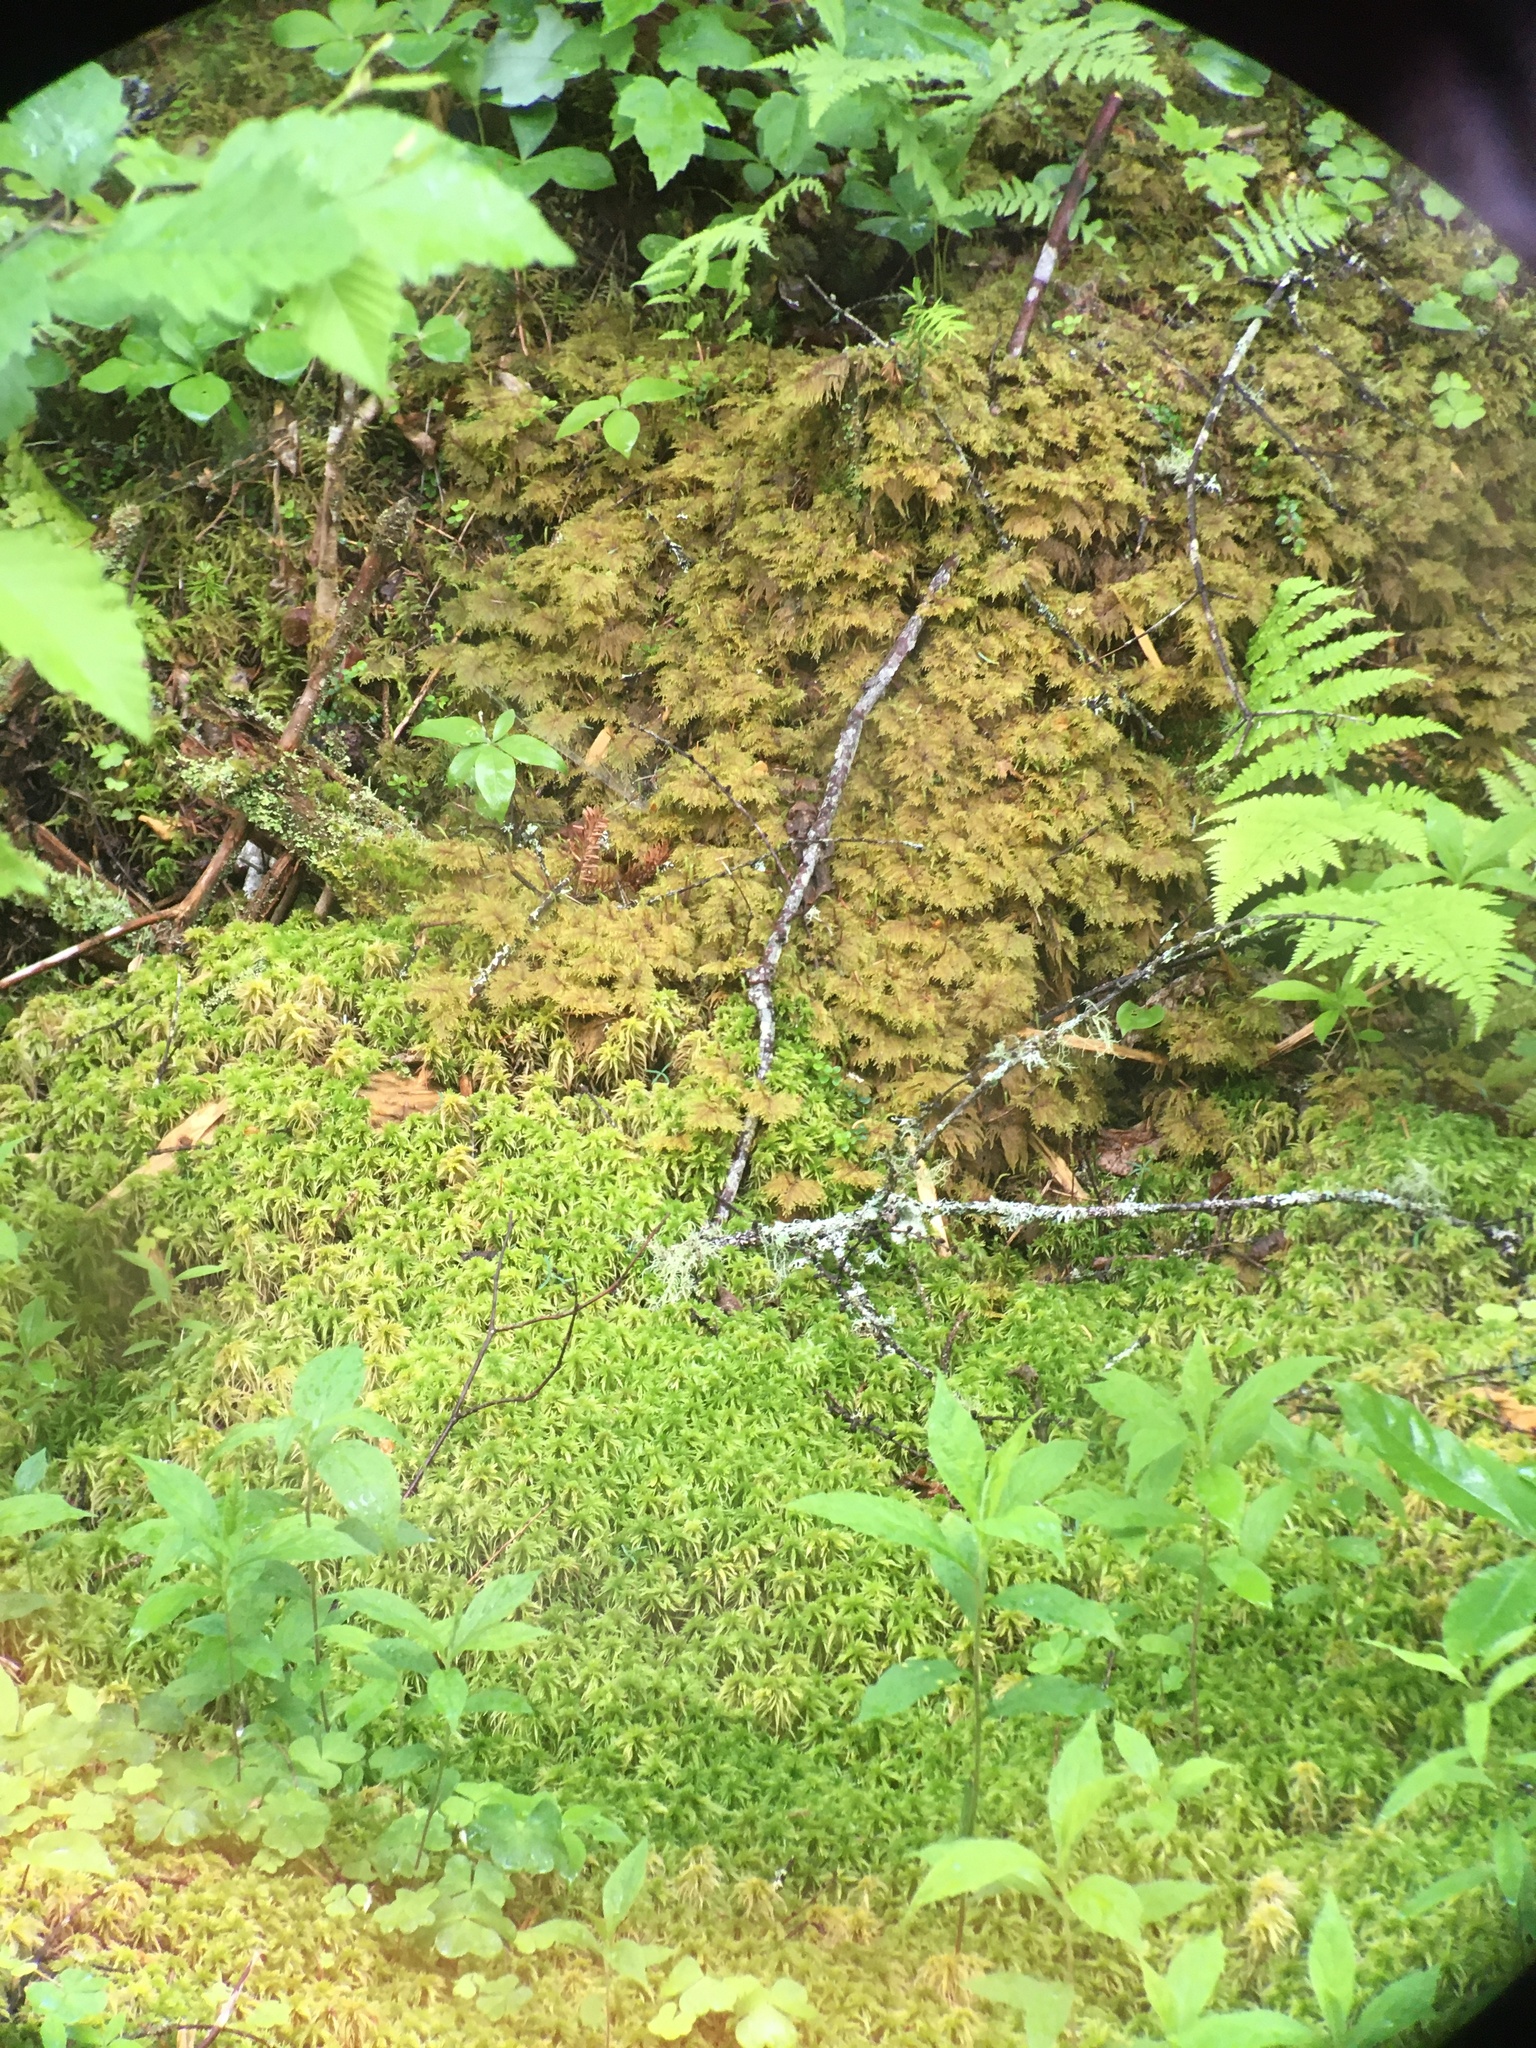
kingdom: Plantae
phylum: Bryophyta
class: Bryopsida
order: Hypnales
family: Hylocomiaceae
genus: Hylocomium
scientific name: Hylocomium splendens
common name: Stairstep moss
